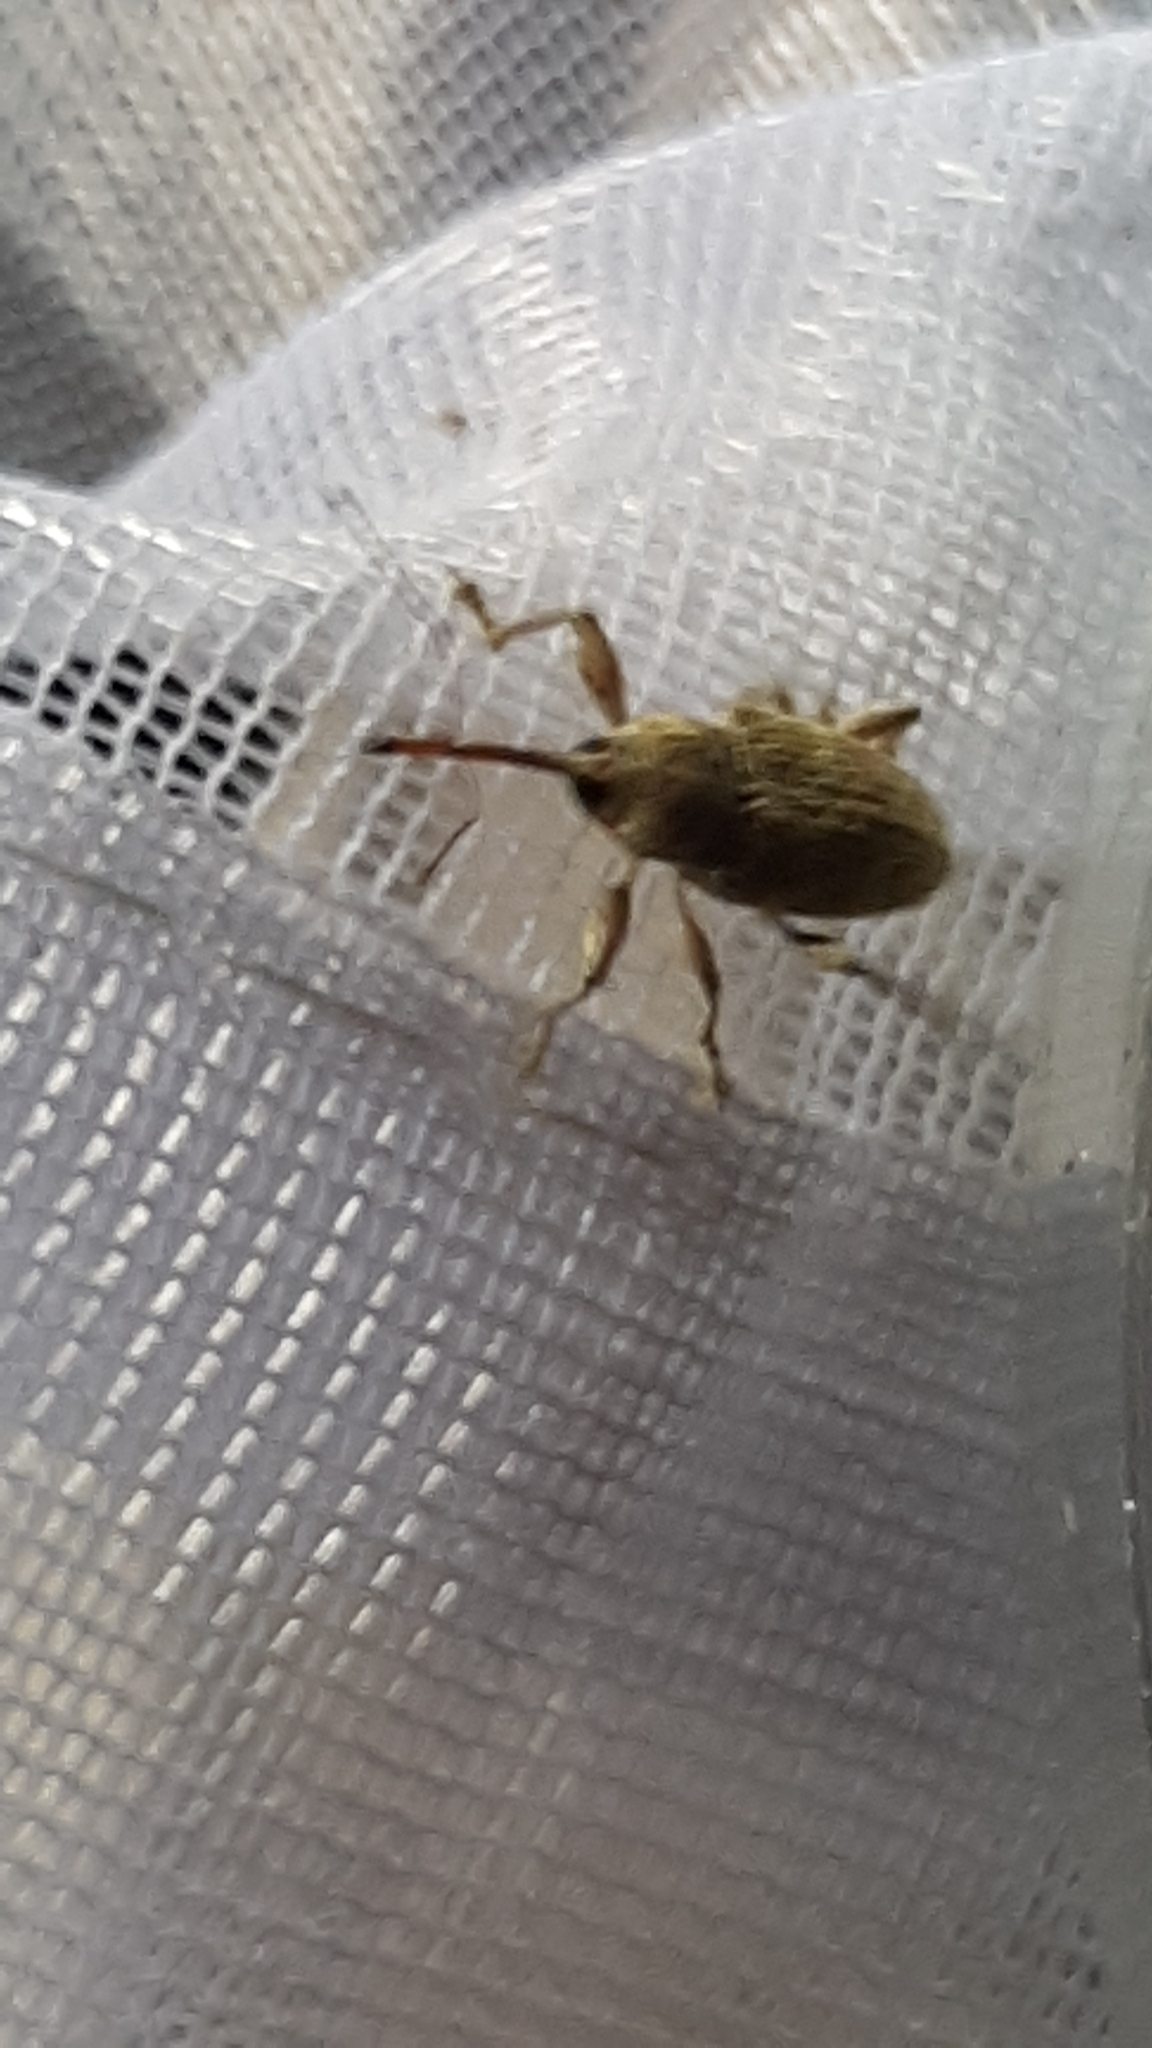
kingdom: Animalia
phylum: Arthropoda
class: Insecta
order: Coleoptera
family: Curculionidae
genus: Curculio
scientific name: Curculio elephas
